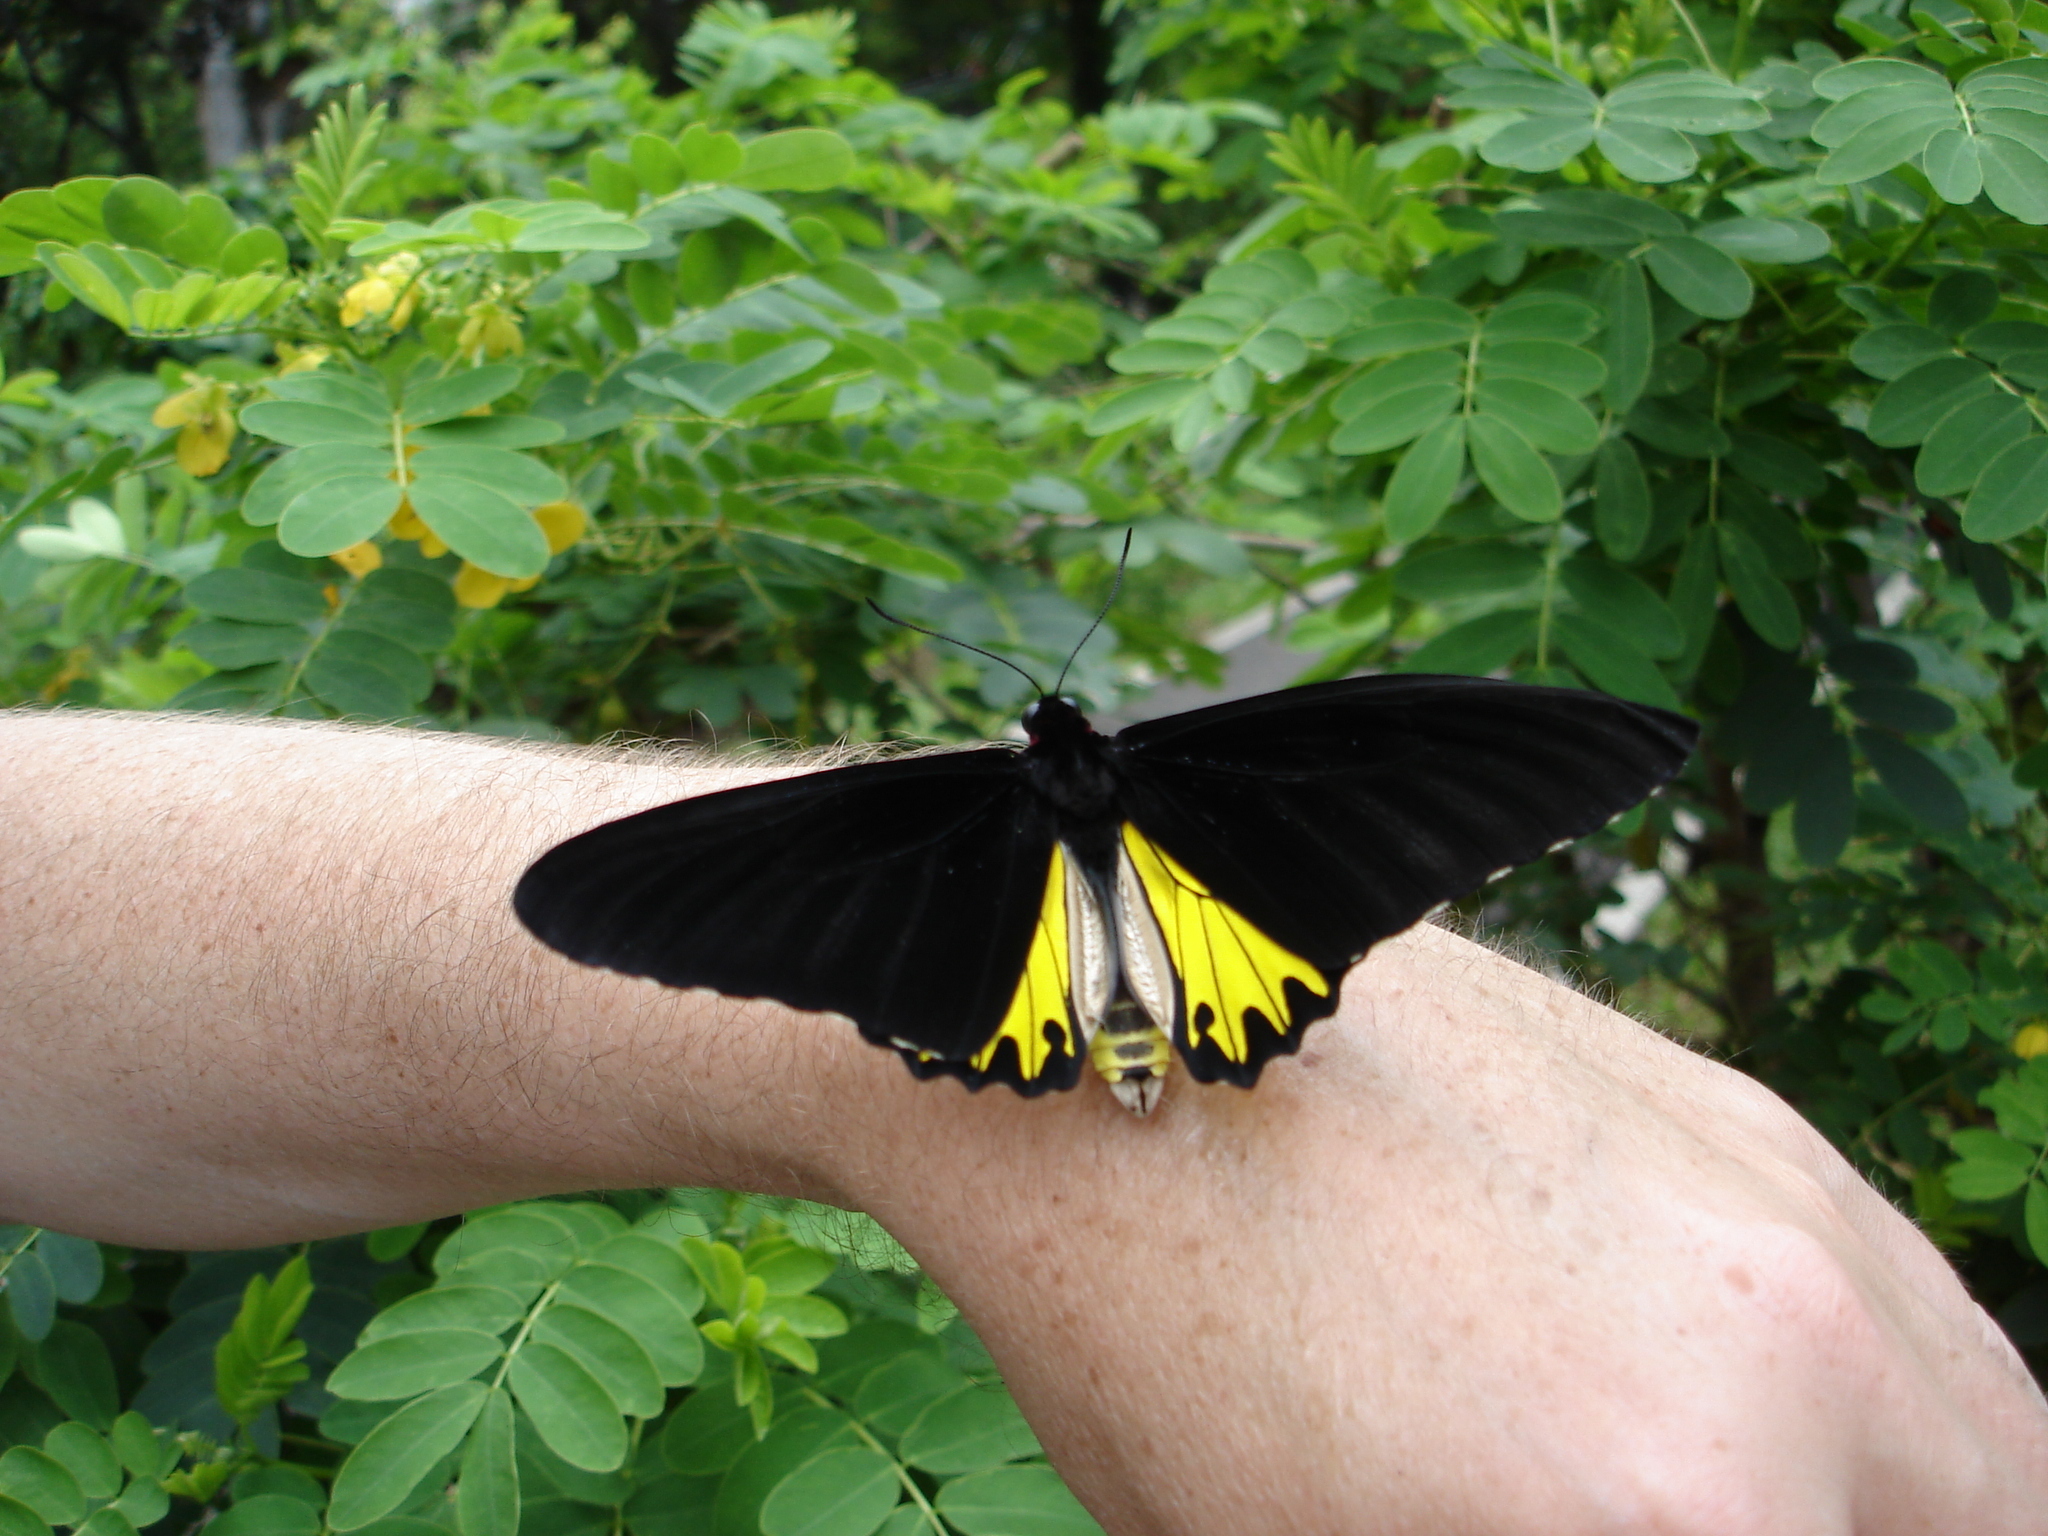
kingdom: Animalia
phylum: Arthropoda
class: Insecta
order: Lepidoptera
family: Papilionidae
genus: Troides
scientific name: Troides helena
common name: Common birdwing
